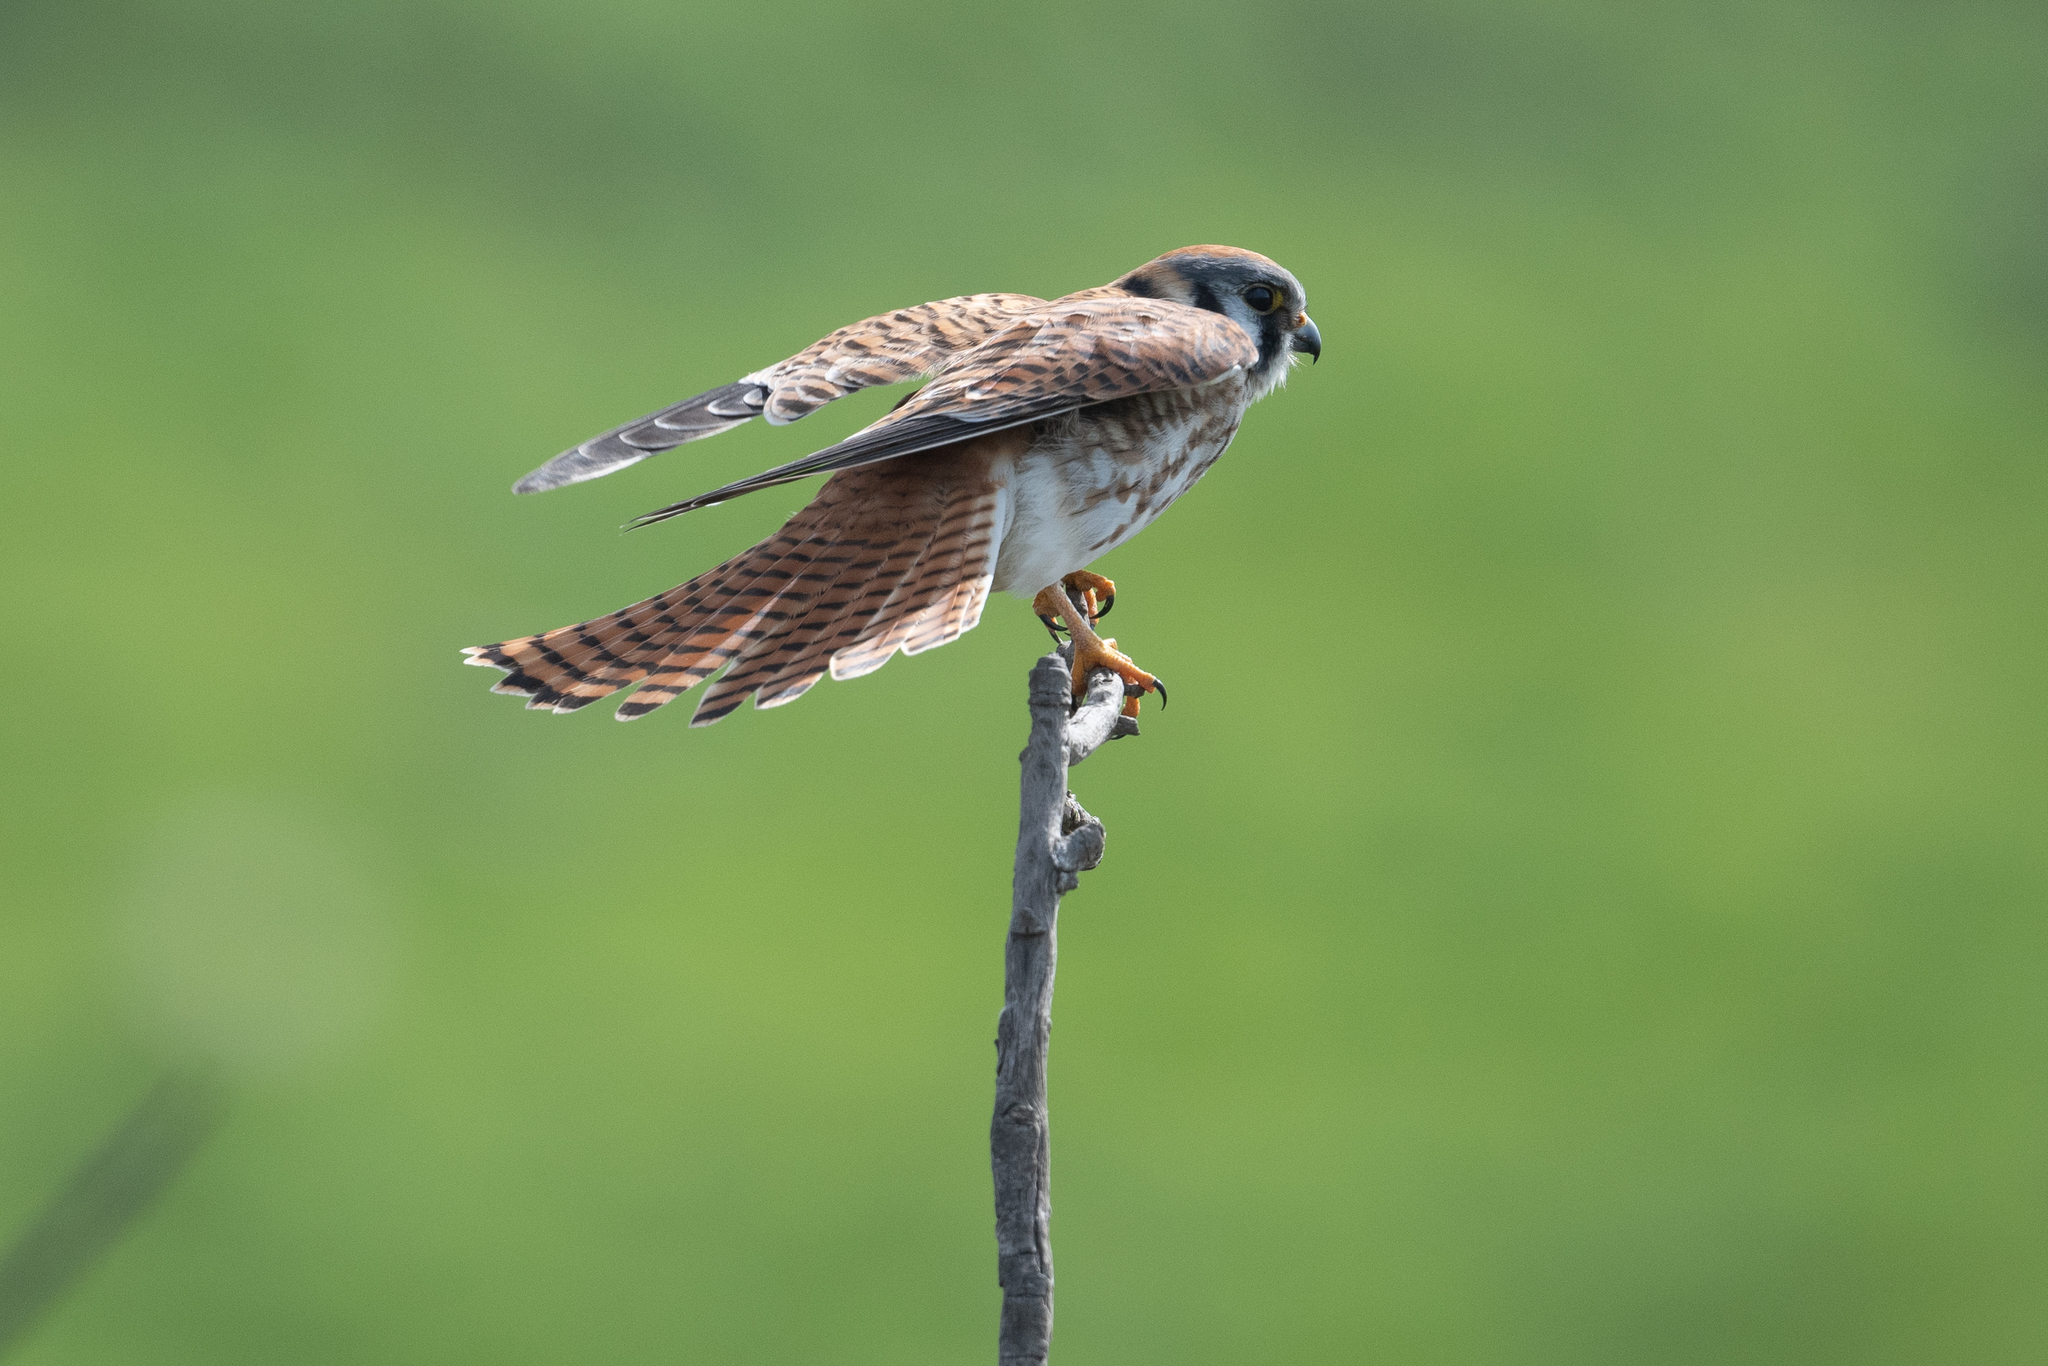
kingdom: Animalia
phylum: Chordata
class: Aves
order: Falconiformes
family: Falconidae
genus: Falco
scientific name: Falco sparverius
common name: American kestrel
